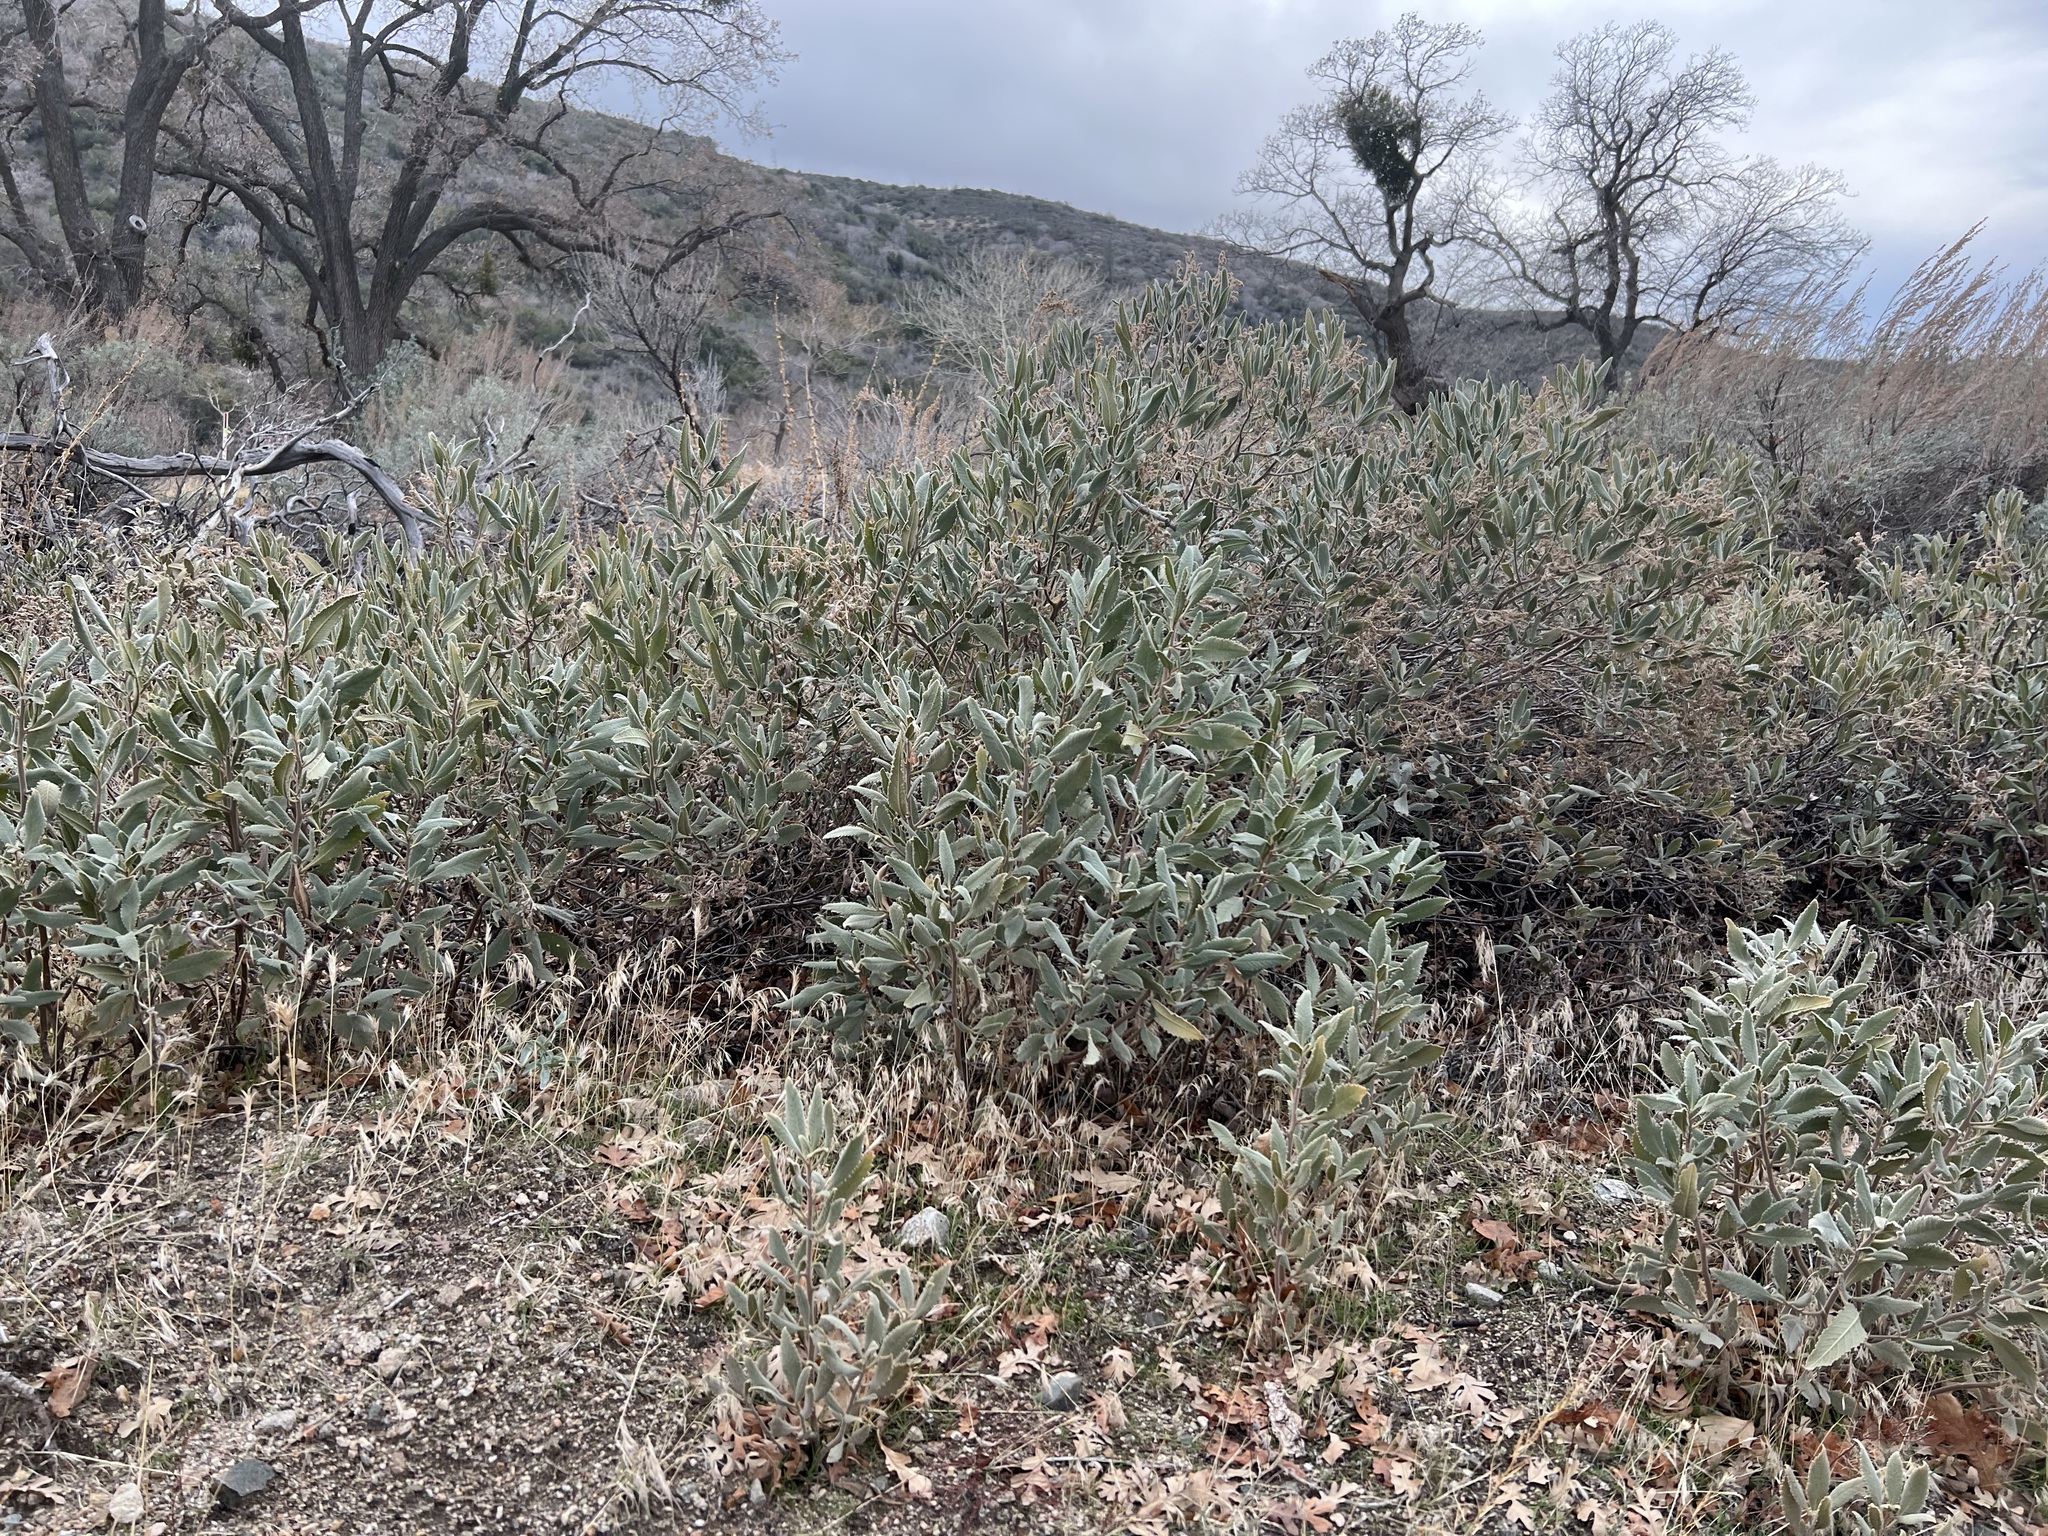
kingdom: Plantae
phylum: Tracheophyta
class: Magnoliopsida
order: Boraginales
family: Namaceae
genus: Eriodictyon
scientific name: Eriodictyon crassifolium
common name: Thick-leaf yerba-santa
